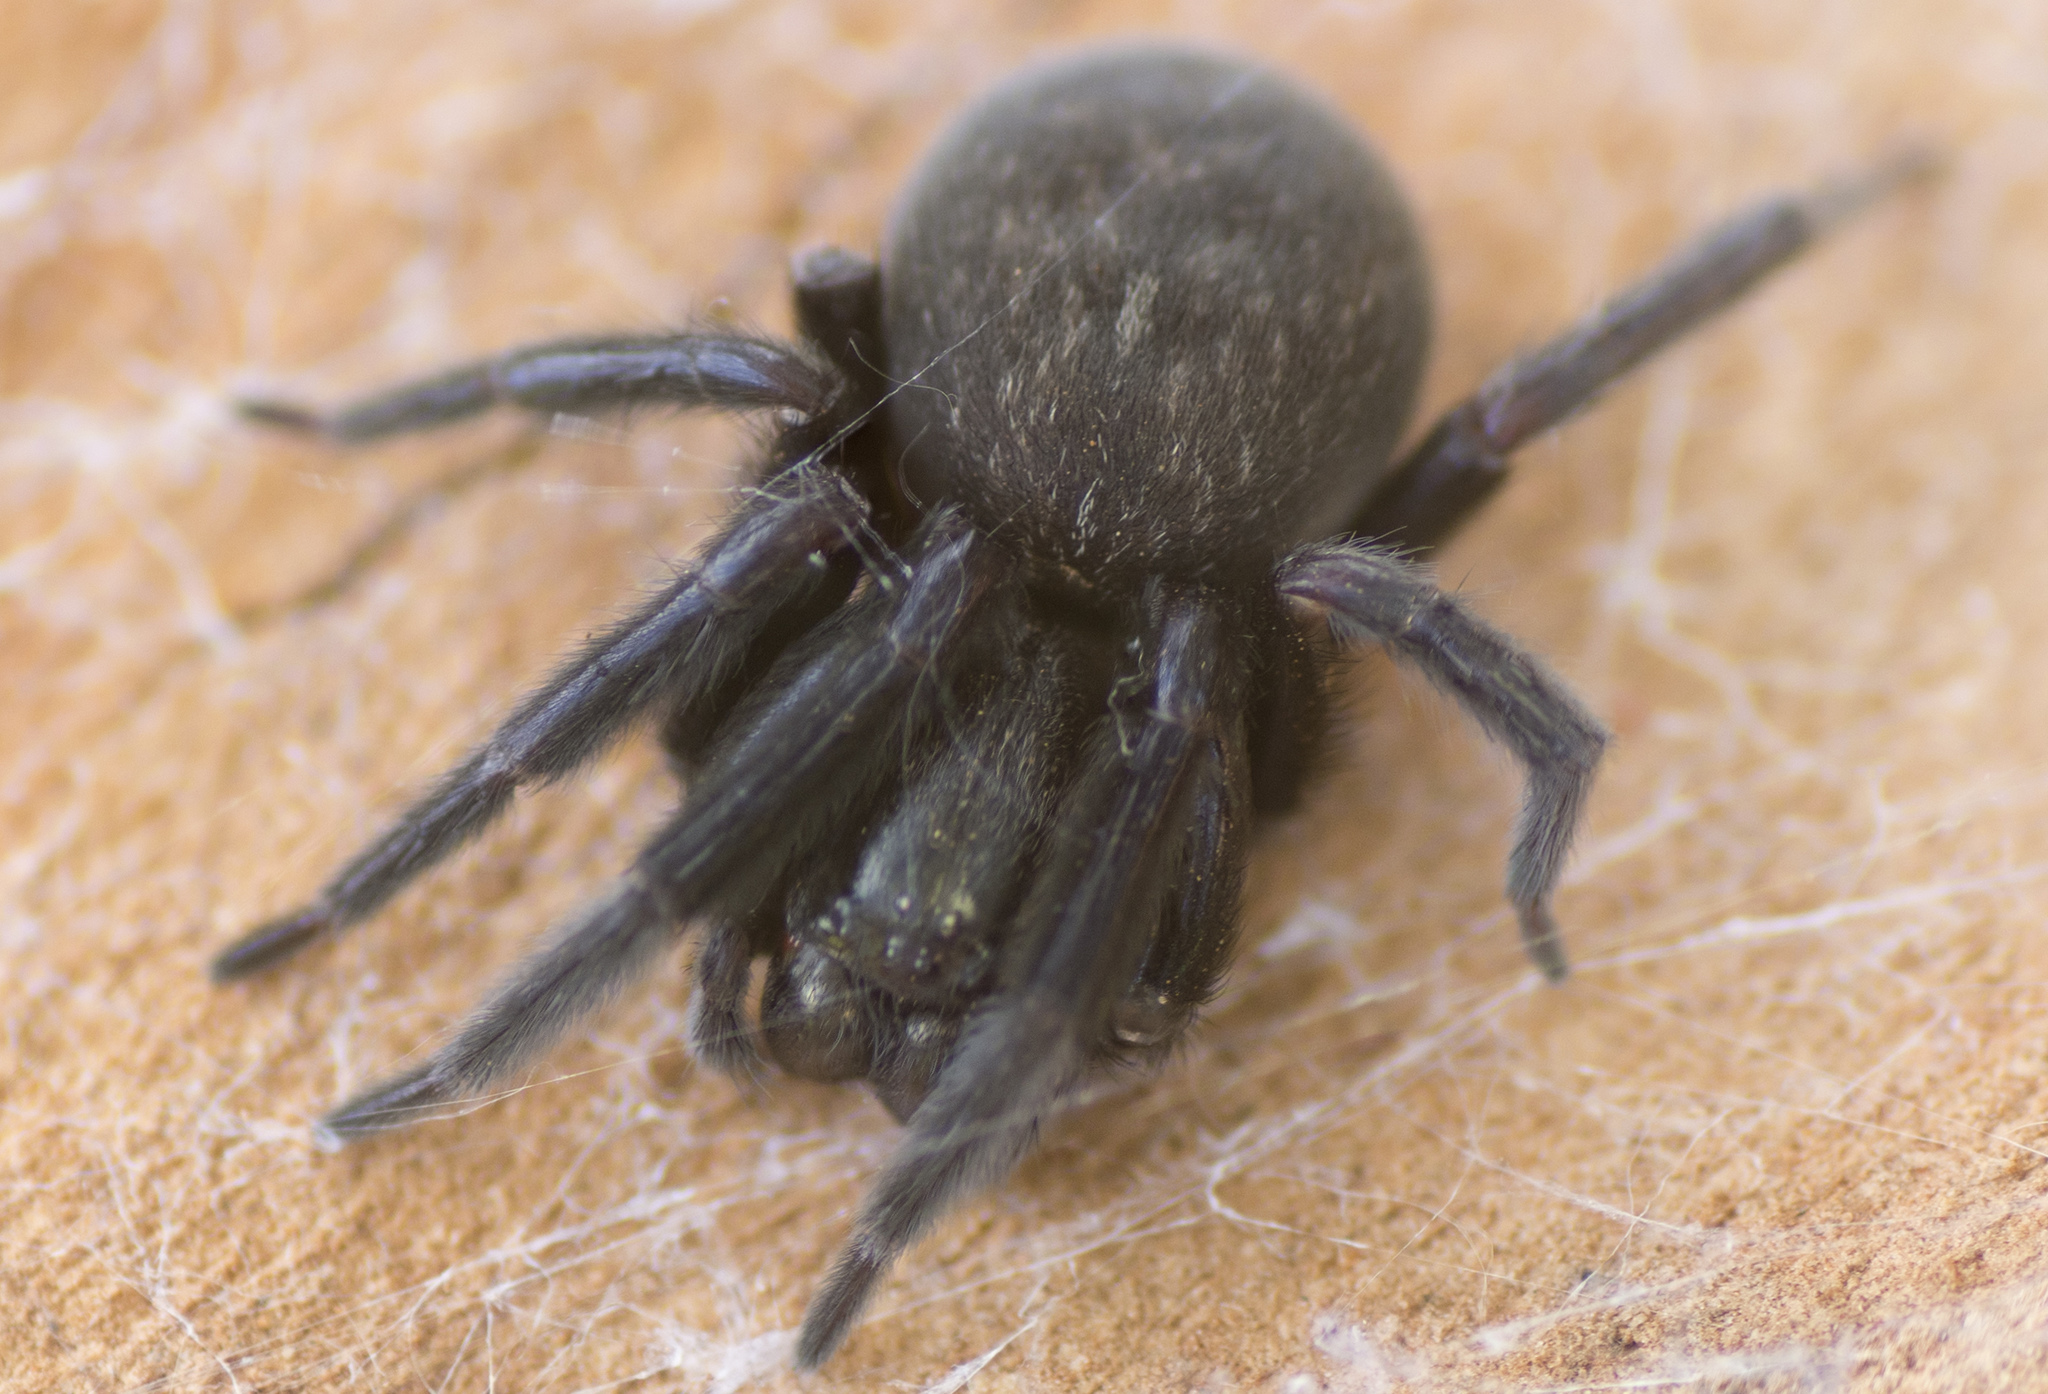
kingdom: Animalia
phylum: Arthropoda
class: Arachnida
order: Araneae
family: Desidae
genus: Badumna
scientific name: Badumna insignis
